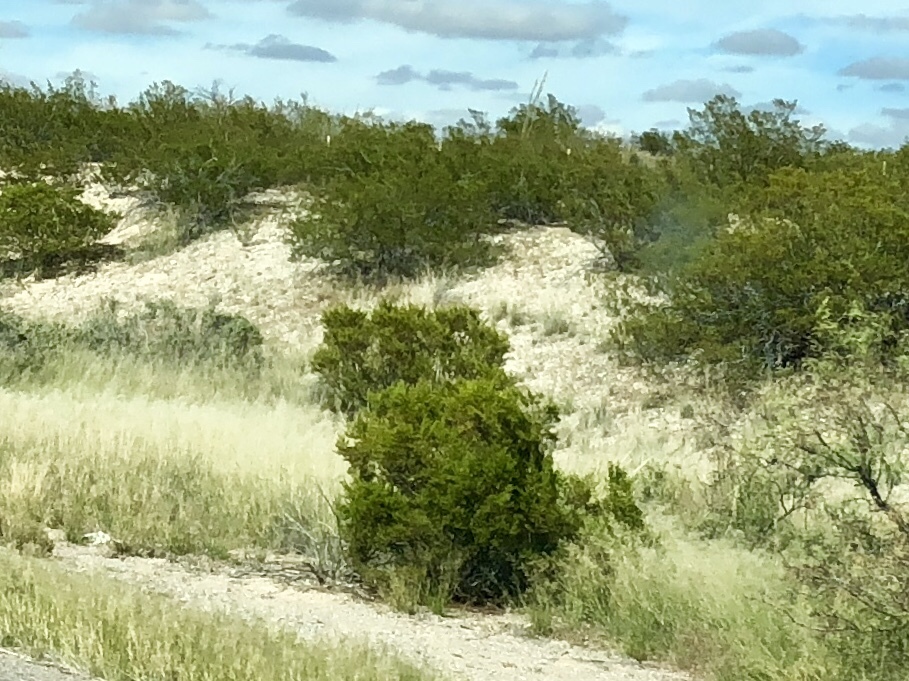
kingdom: Plantae
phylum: Tracheophyta
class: Magnoliopsida
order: Zygophyllales
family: Zygophyllaceae
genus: Larrea
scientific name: Larrea tridentata
